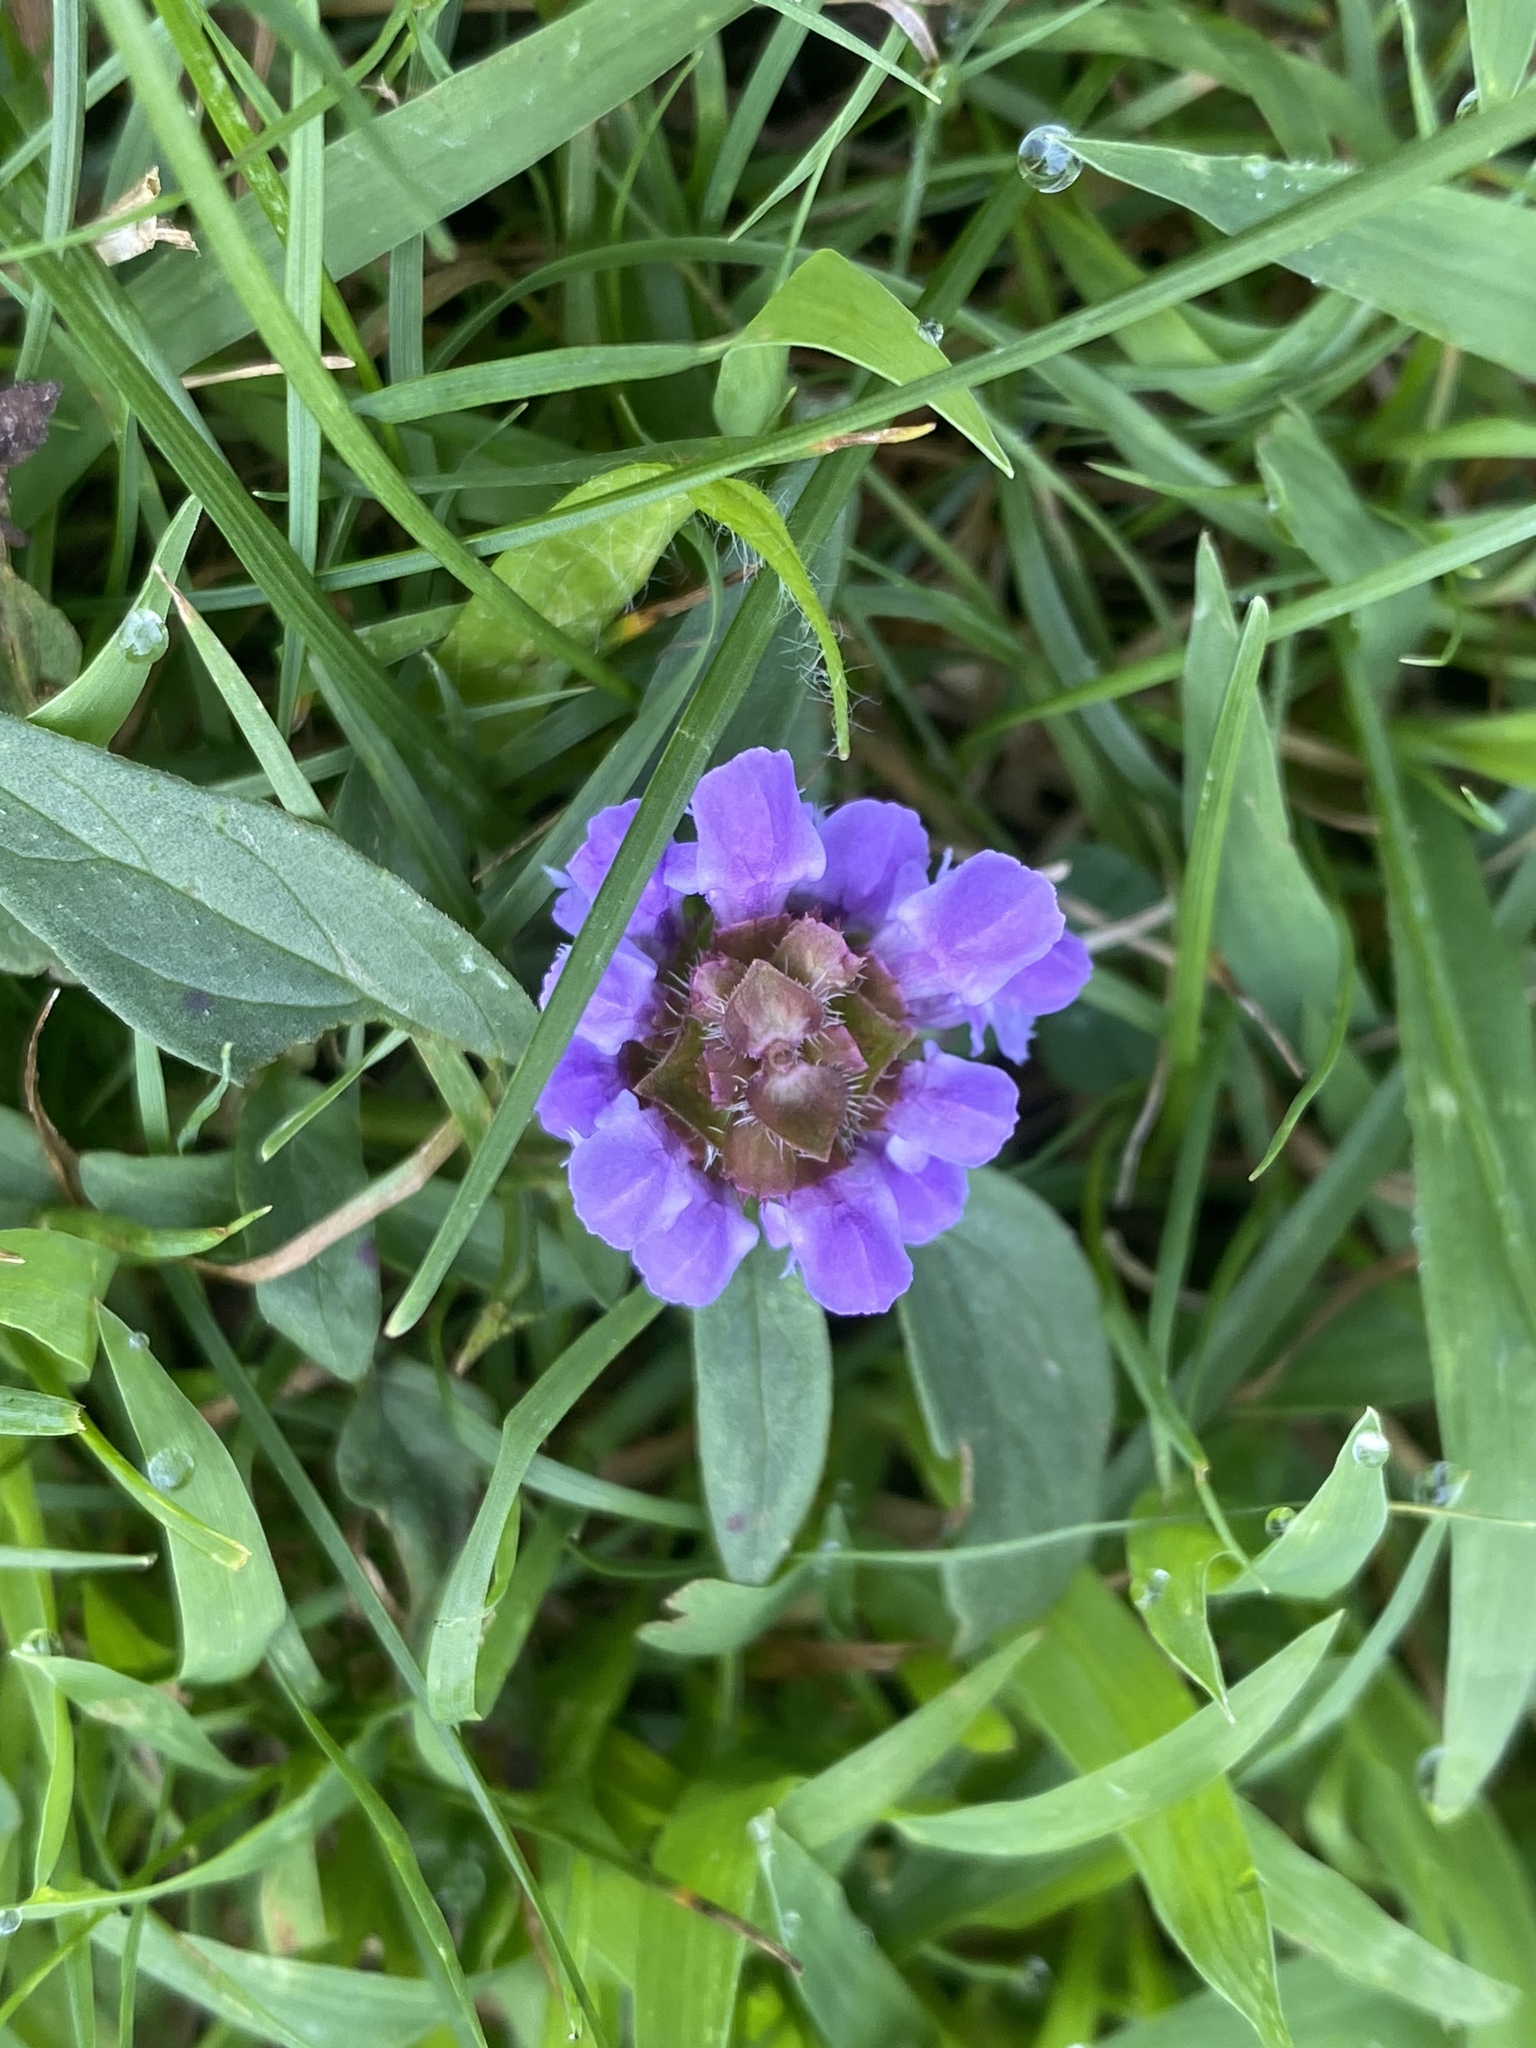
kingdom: Plantae
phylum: Tracheophyta
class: Magnoliopsida
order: Lamiales
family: Lamiaceae
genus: Prunella
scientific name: Prunella vulgaris
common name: Heal-all
